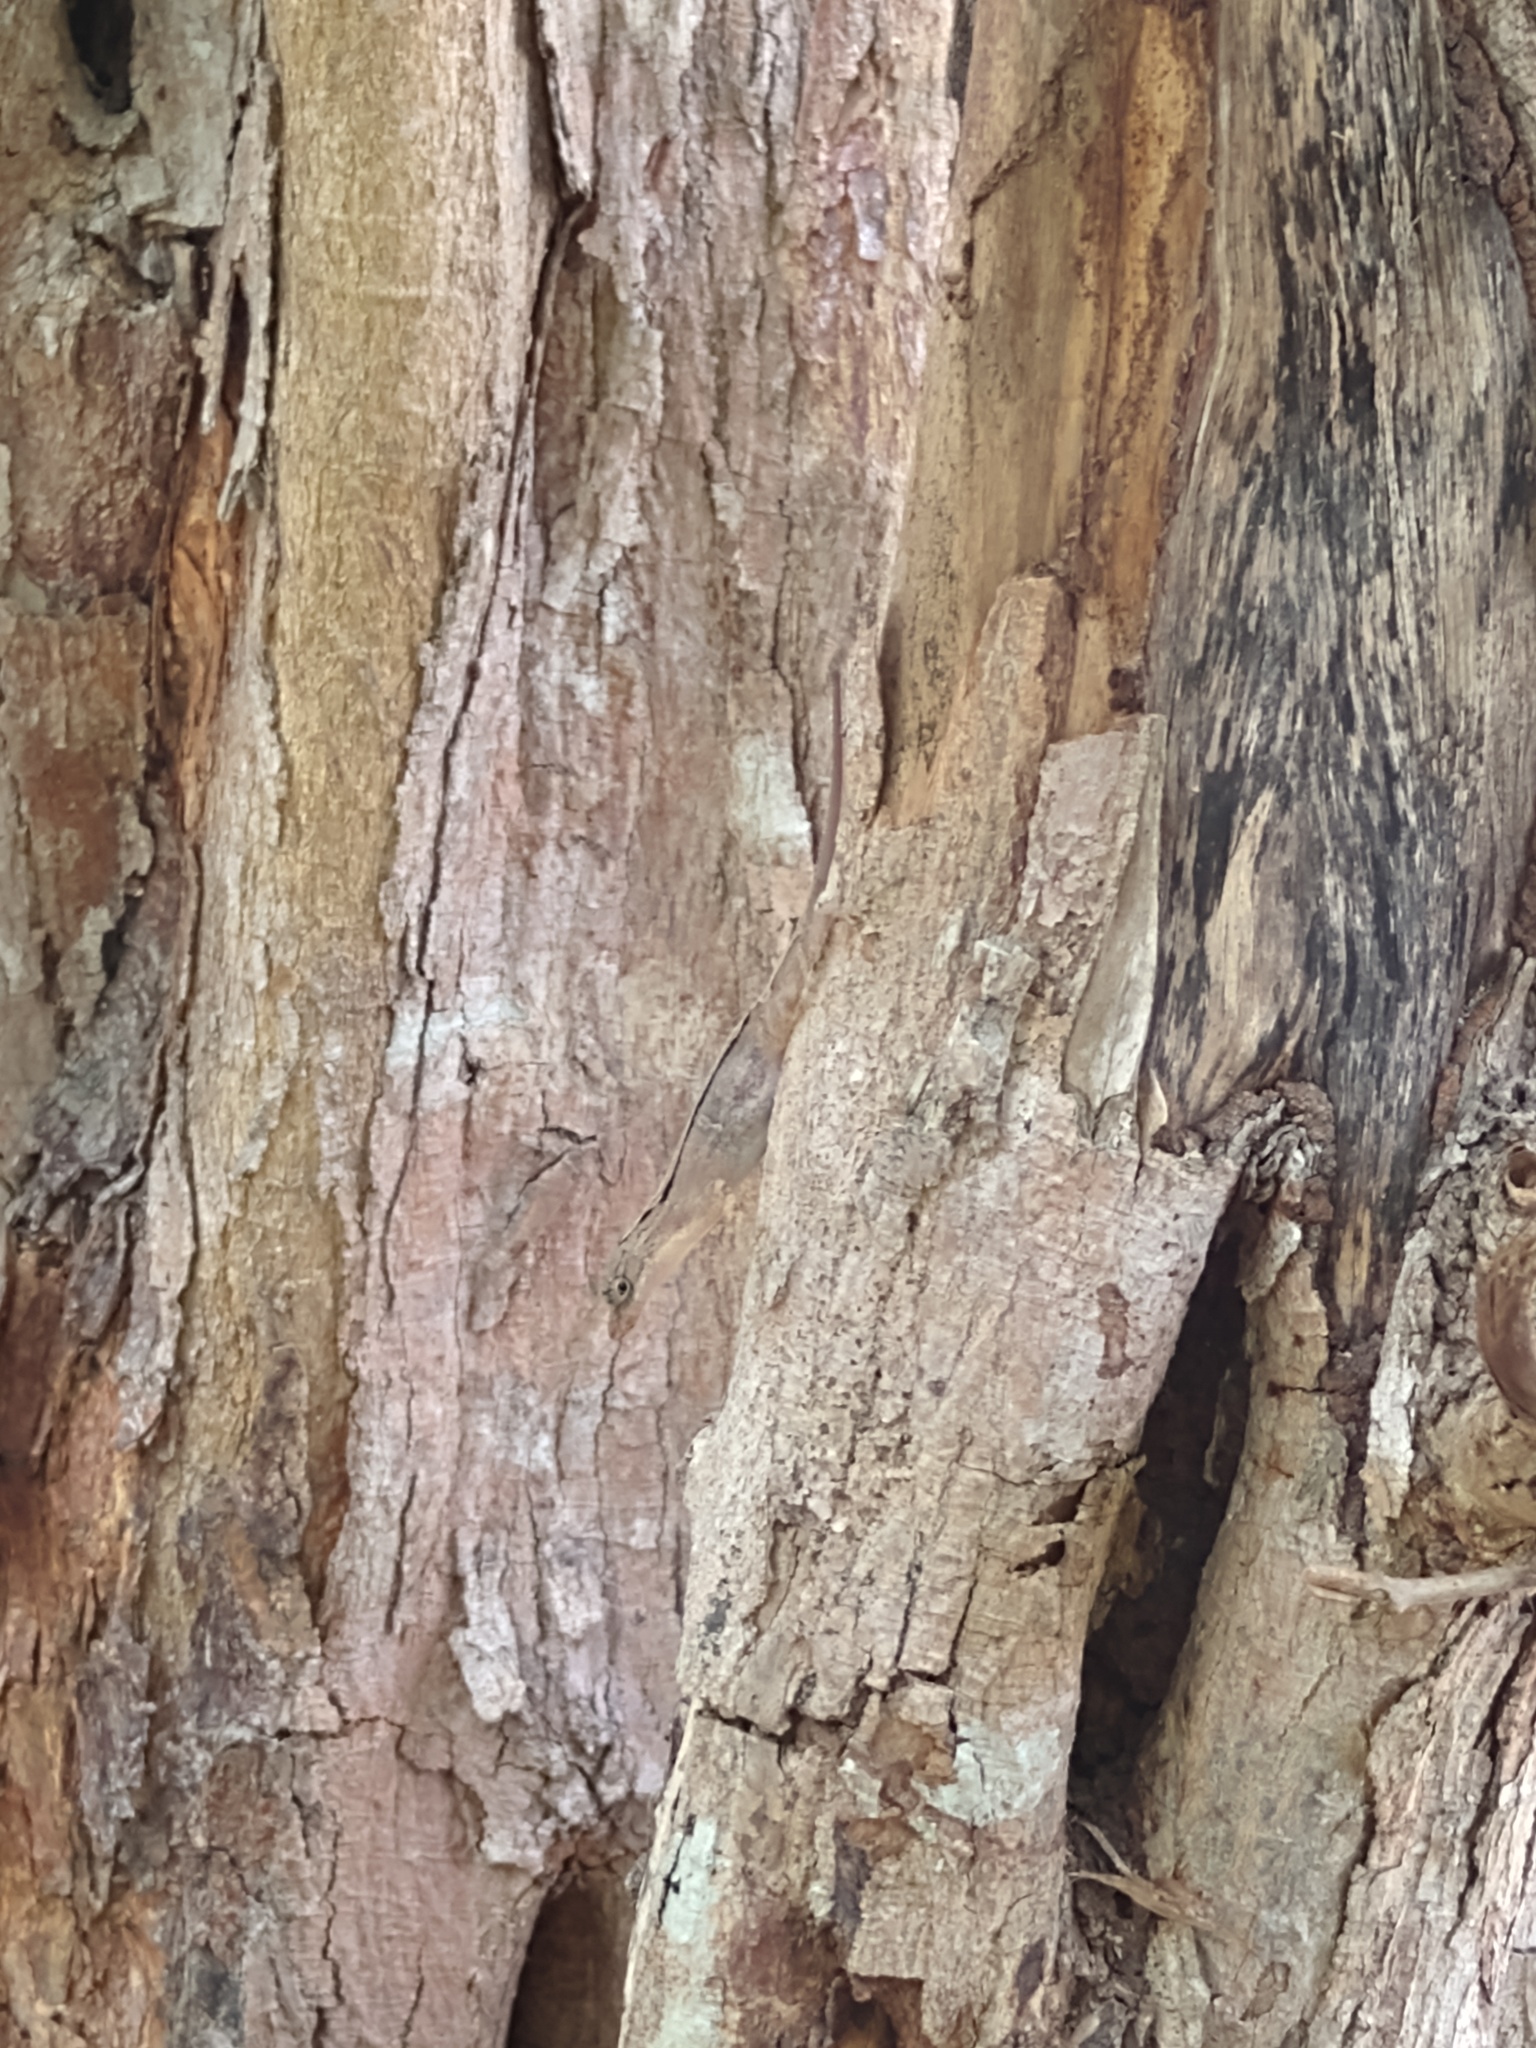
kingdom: Animalia
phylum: Chordata
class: Squamata
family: Dactyloidae
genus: Anolis
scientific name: Anolis rodriguezii
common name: Middle american smooth anole
